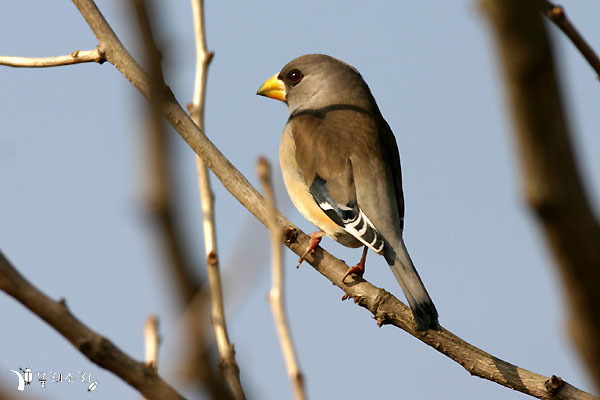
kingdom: Animalia
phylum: Chordata
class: Aves
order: Passeriformes
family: Fringillidae
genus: Eophona
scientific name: Eophona migratoria
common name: Yellow-billed grosbeak
